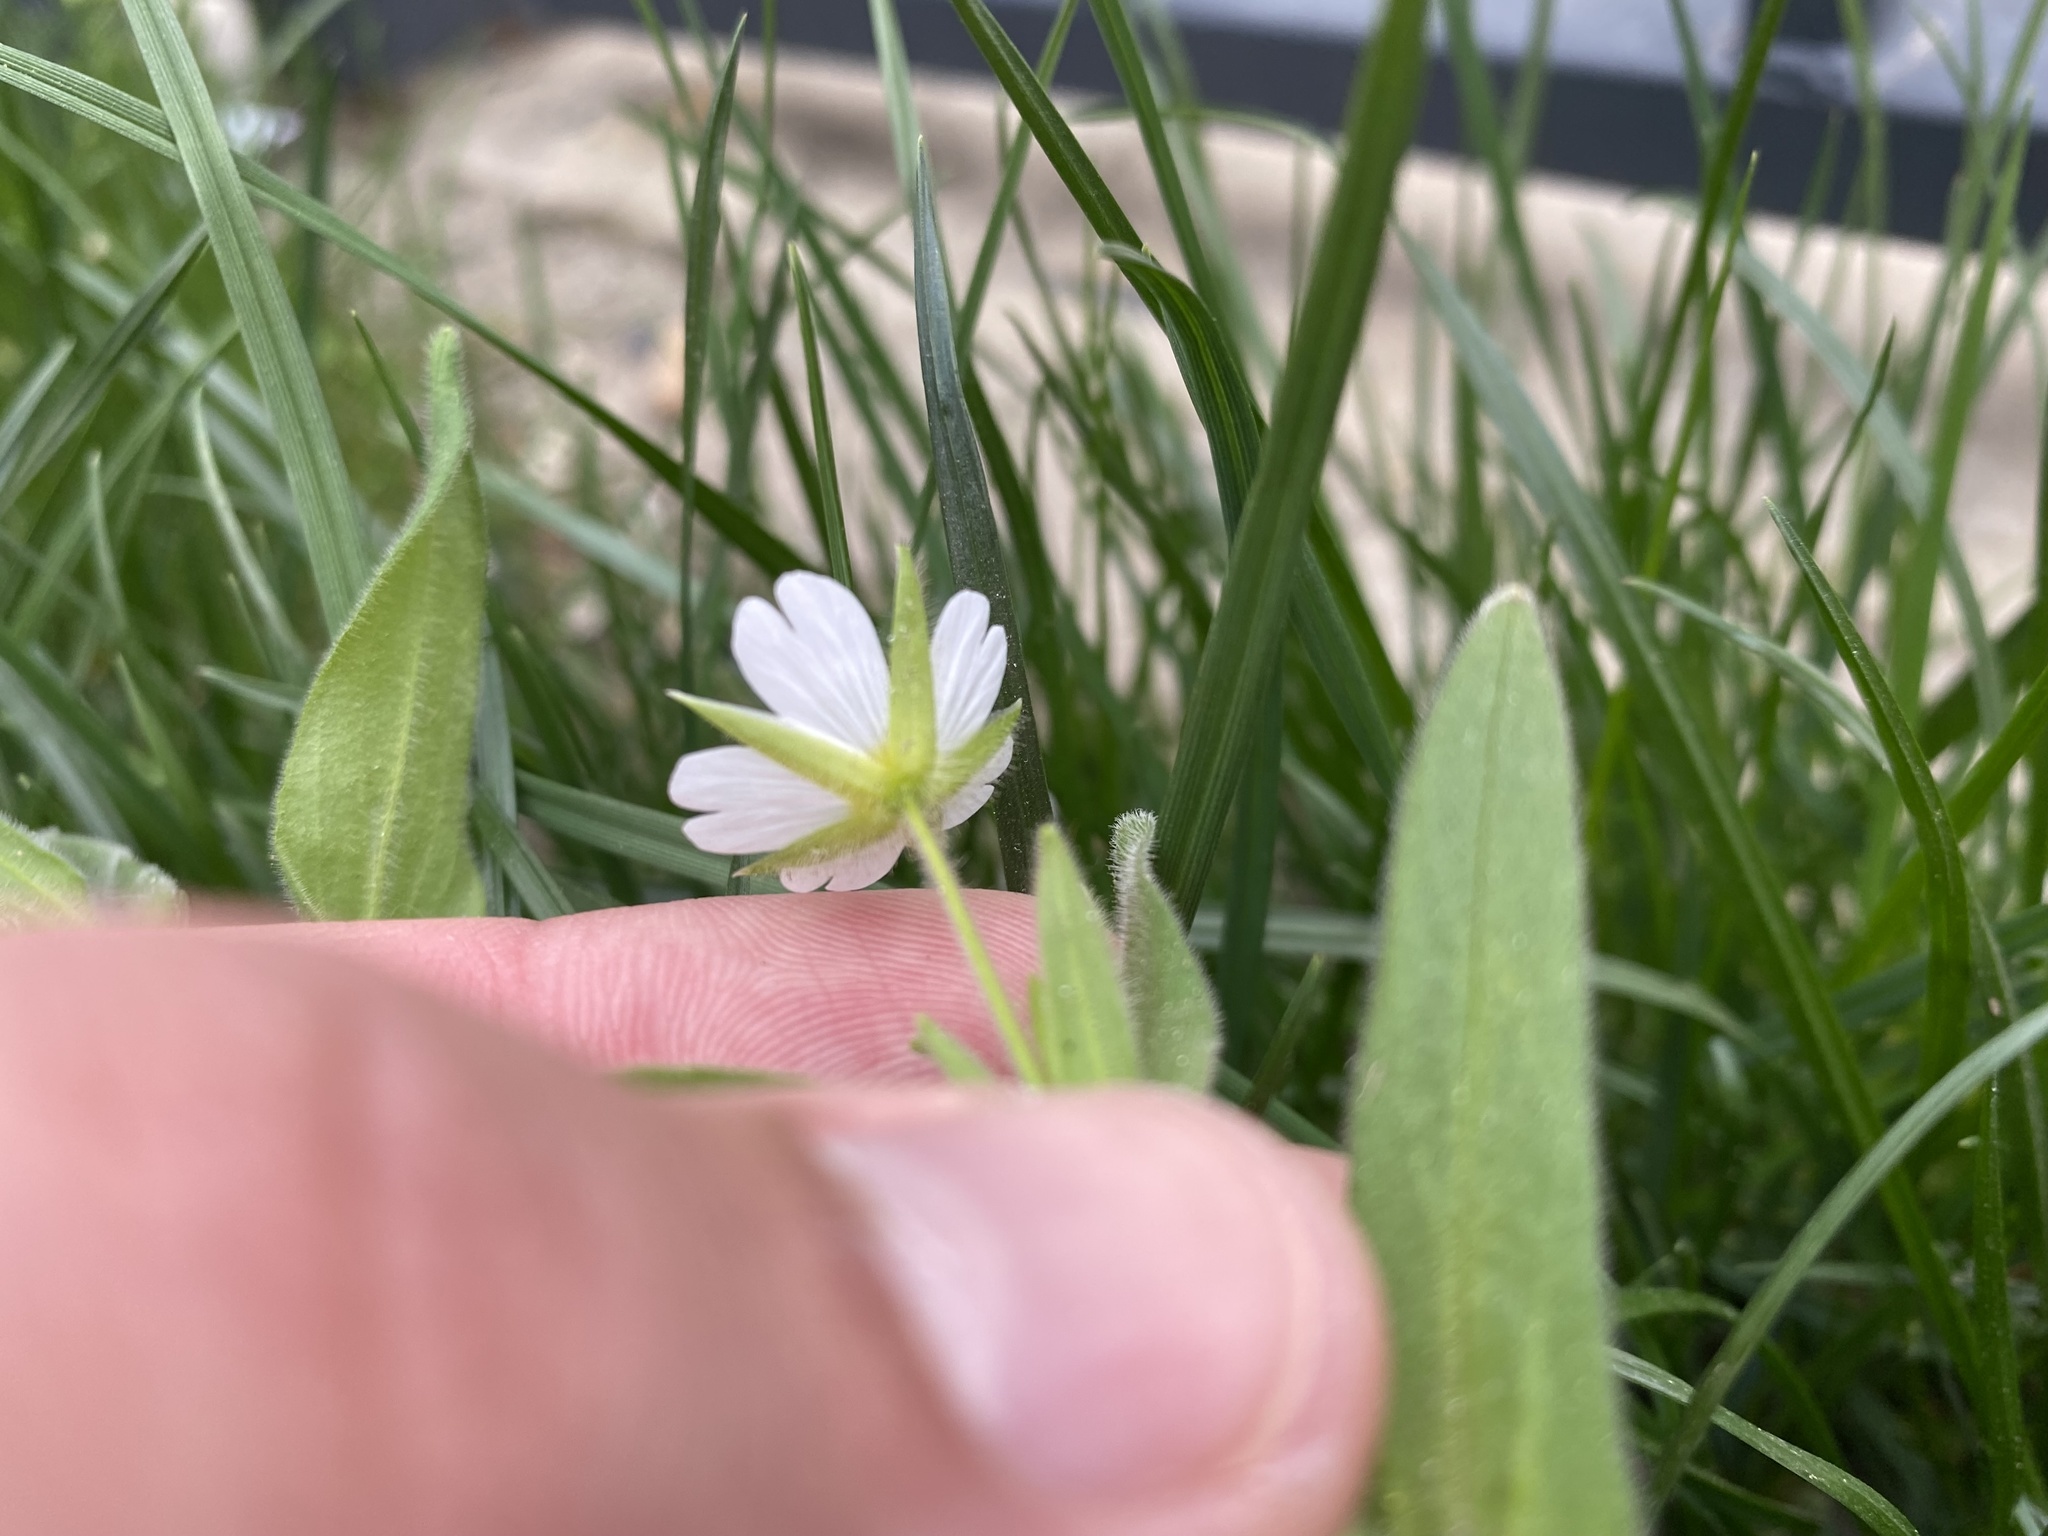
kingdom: Plantae
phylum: Tracheophyta
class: Magnoliopsida
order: Caryophyllales
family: Caryophyllaceae
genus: Cerastium
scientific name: Cerastium nemorale
